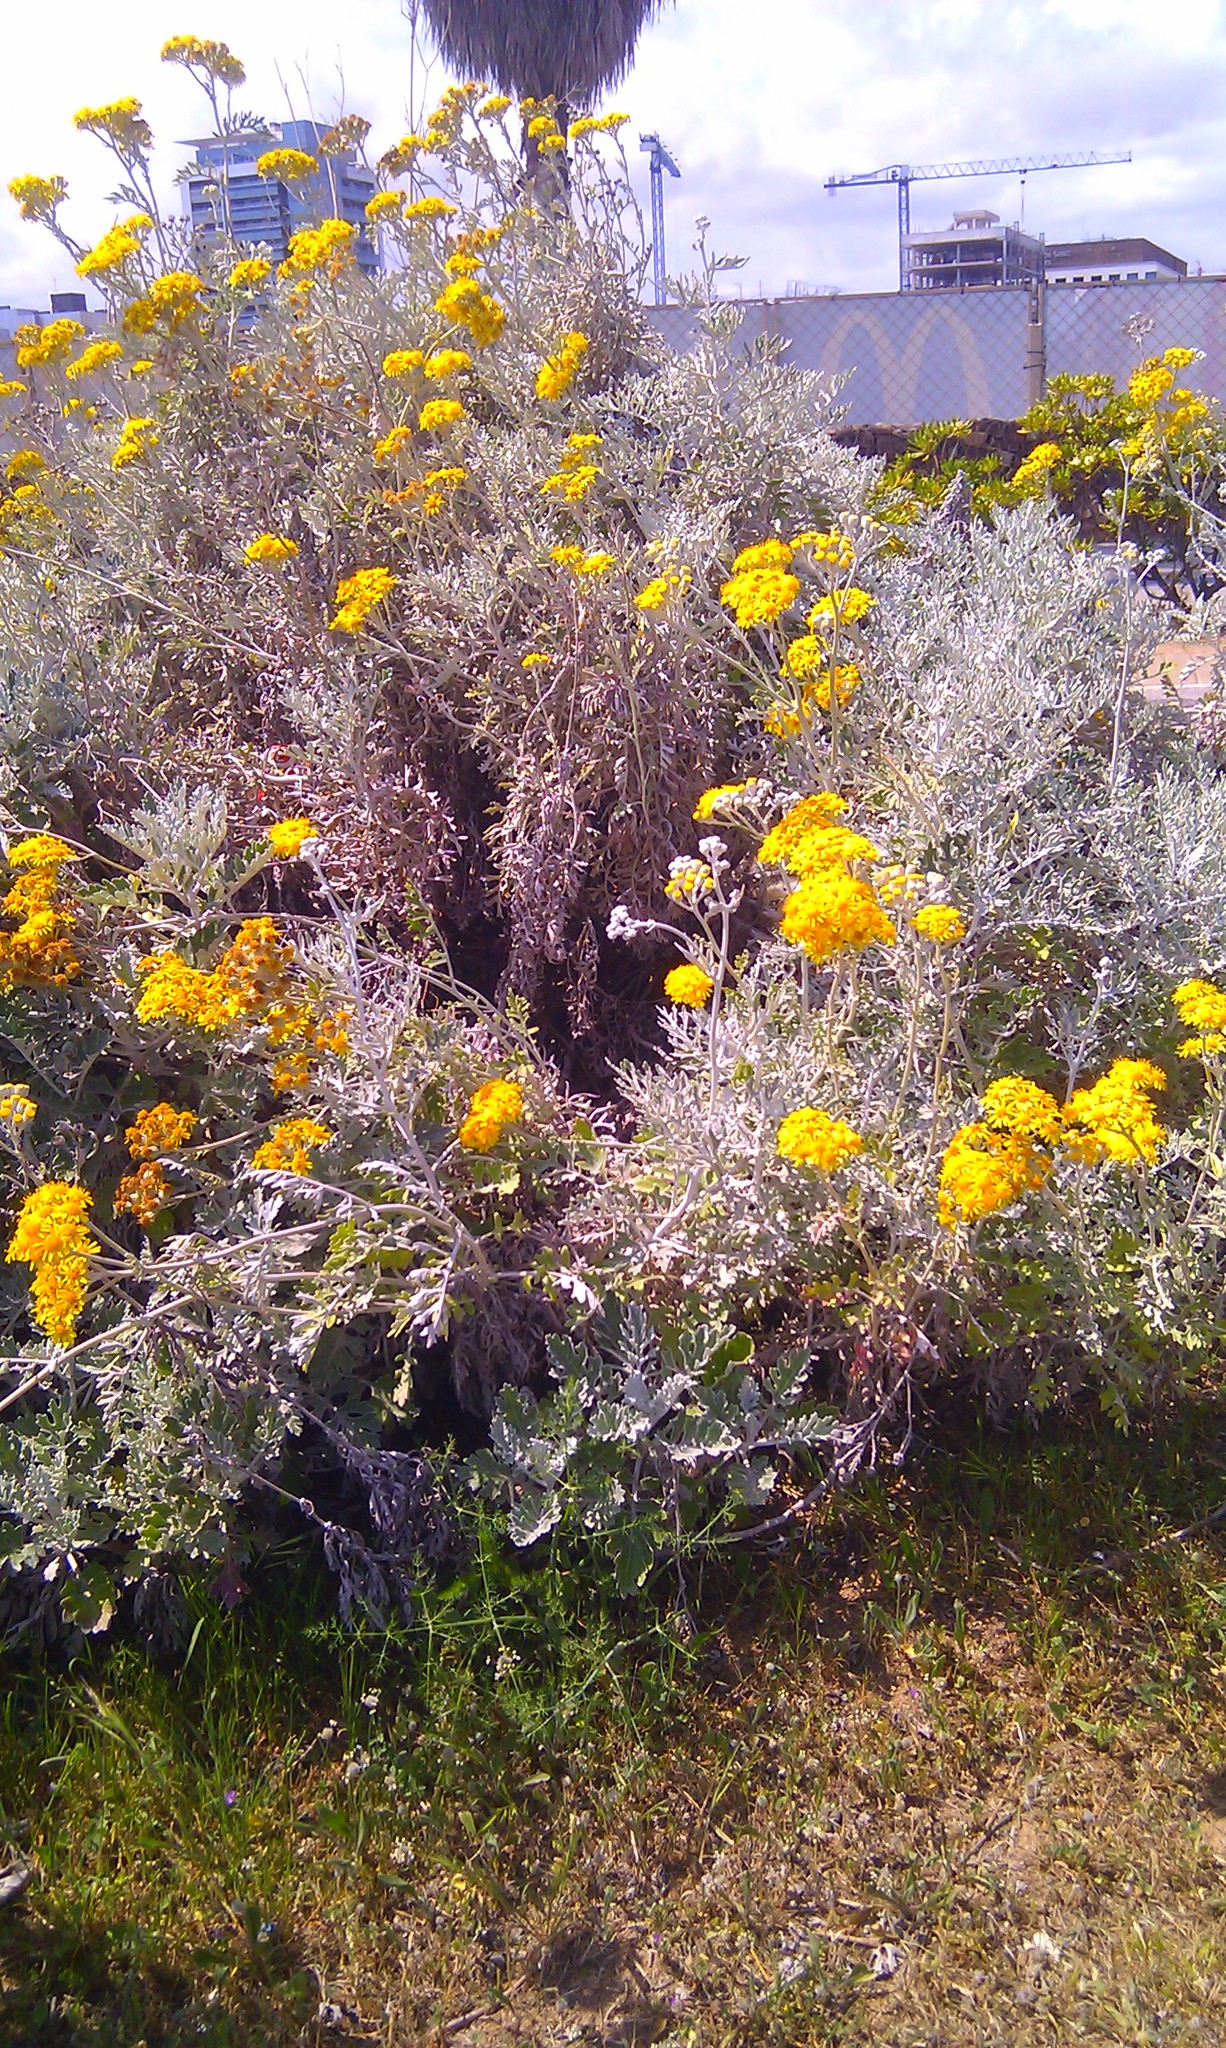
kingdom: Plantae
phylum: Tracheophyta
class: Magnoliopsida
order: Asterales
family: Asteraceae
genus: Jacobaea
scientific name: Jacobaea maritima
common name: Silver ragwort
